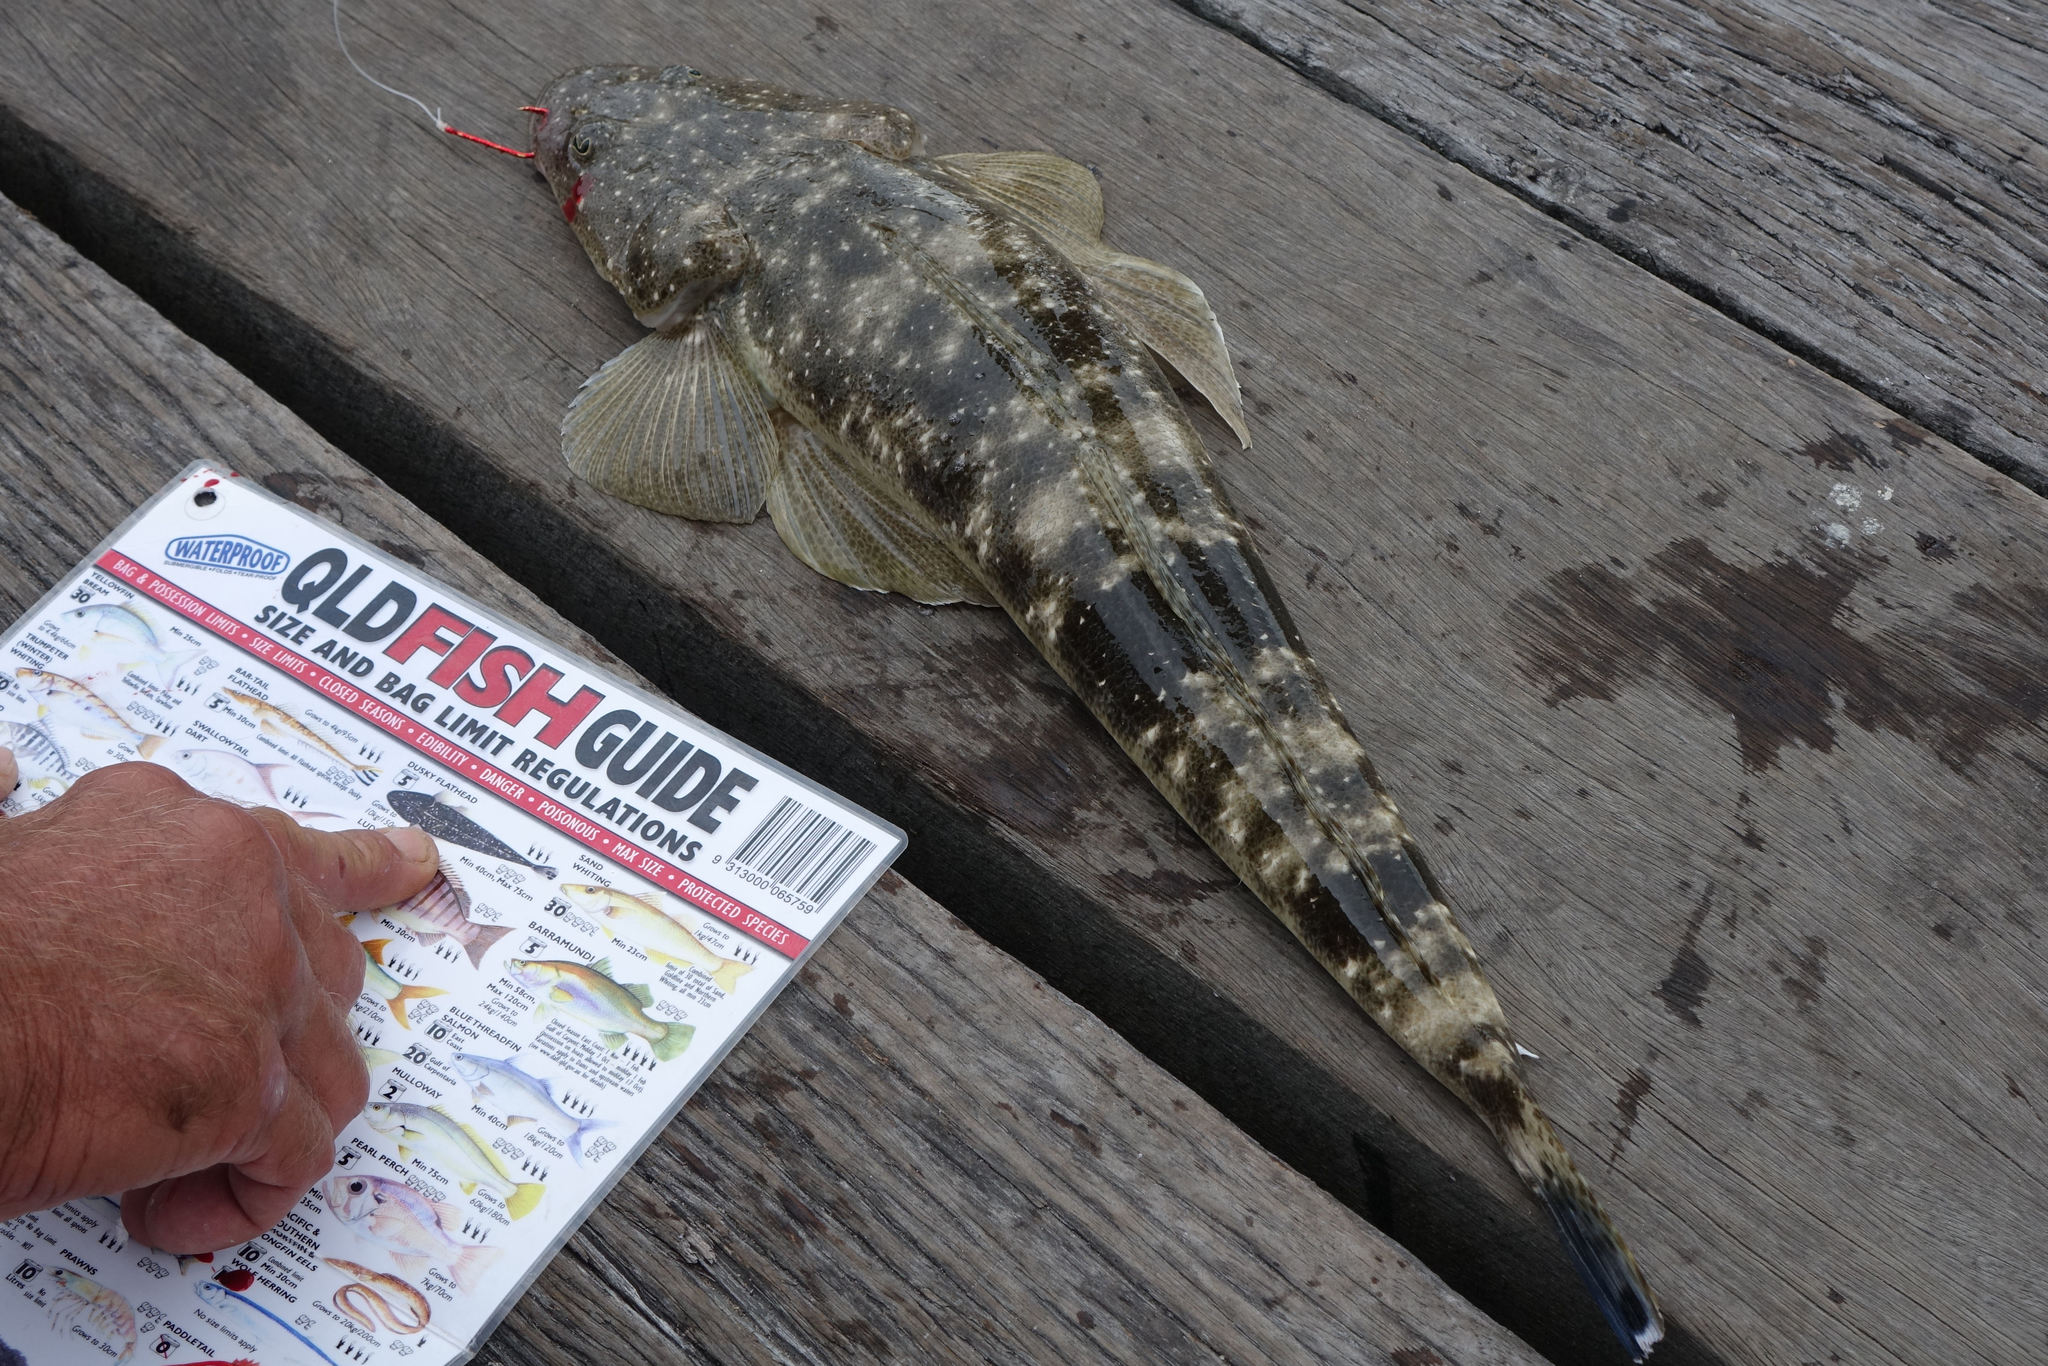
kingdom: Animalia
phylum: Chordata
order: Scorpaeniformes
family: Platycephalidae
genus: Platycephalus
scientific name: Platycephalus fuscus
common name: Dusky flathead
